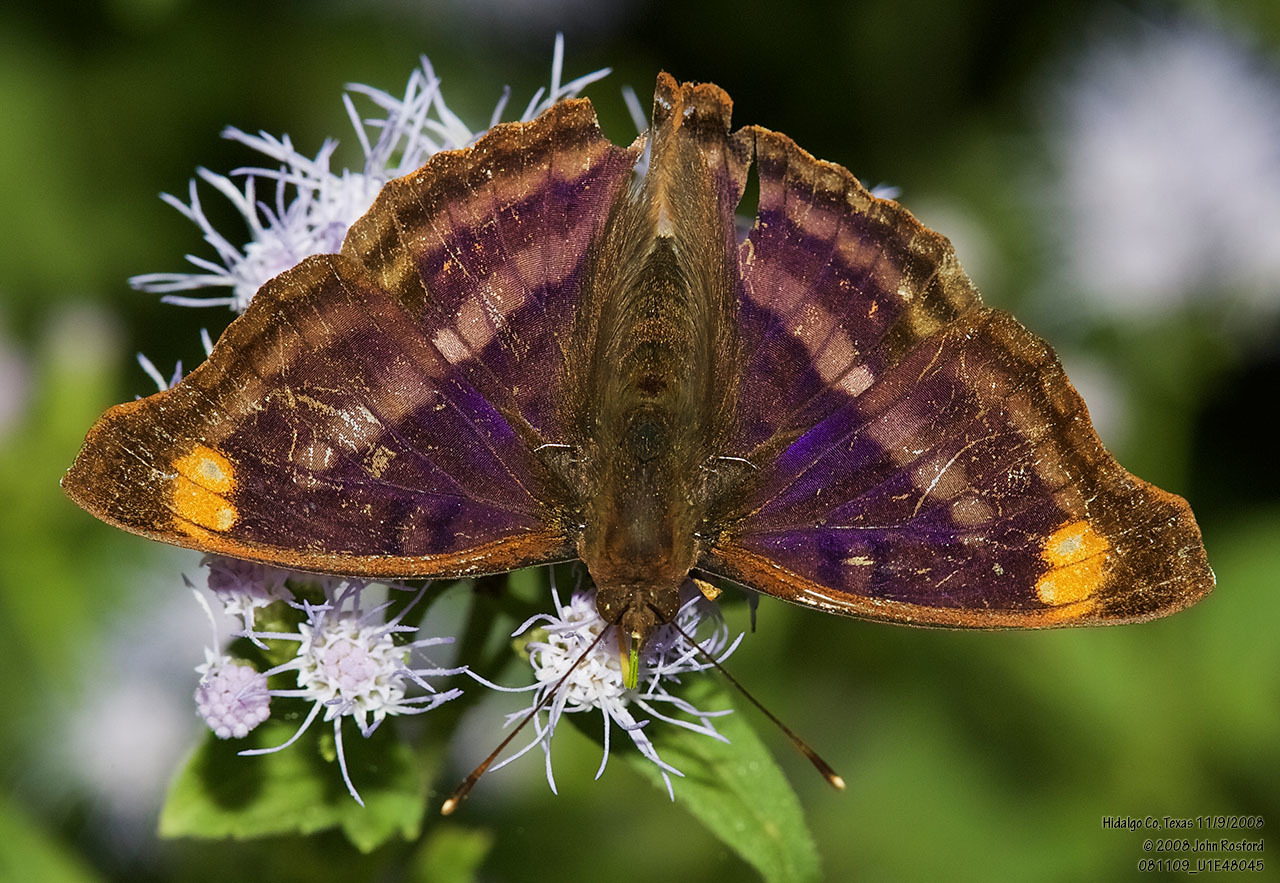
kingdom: Animalia
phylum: Arthropoda
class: Insecta
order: Lepidoptera
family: Nymphalidae
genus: Doxocopa
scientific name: Doxocopa pavon
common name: Pavon emperor
